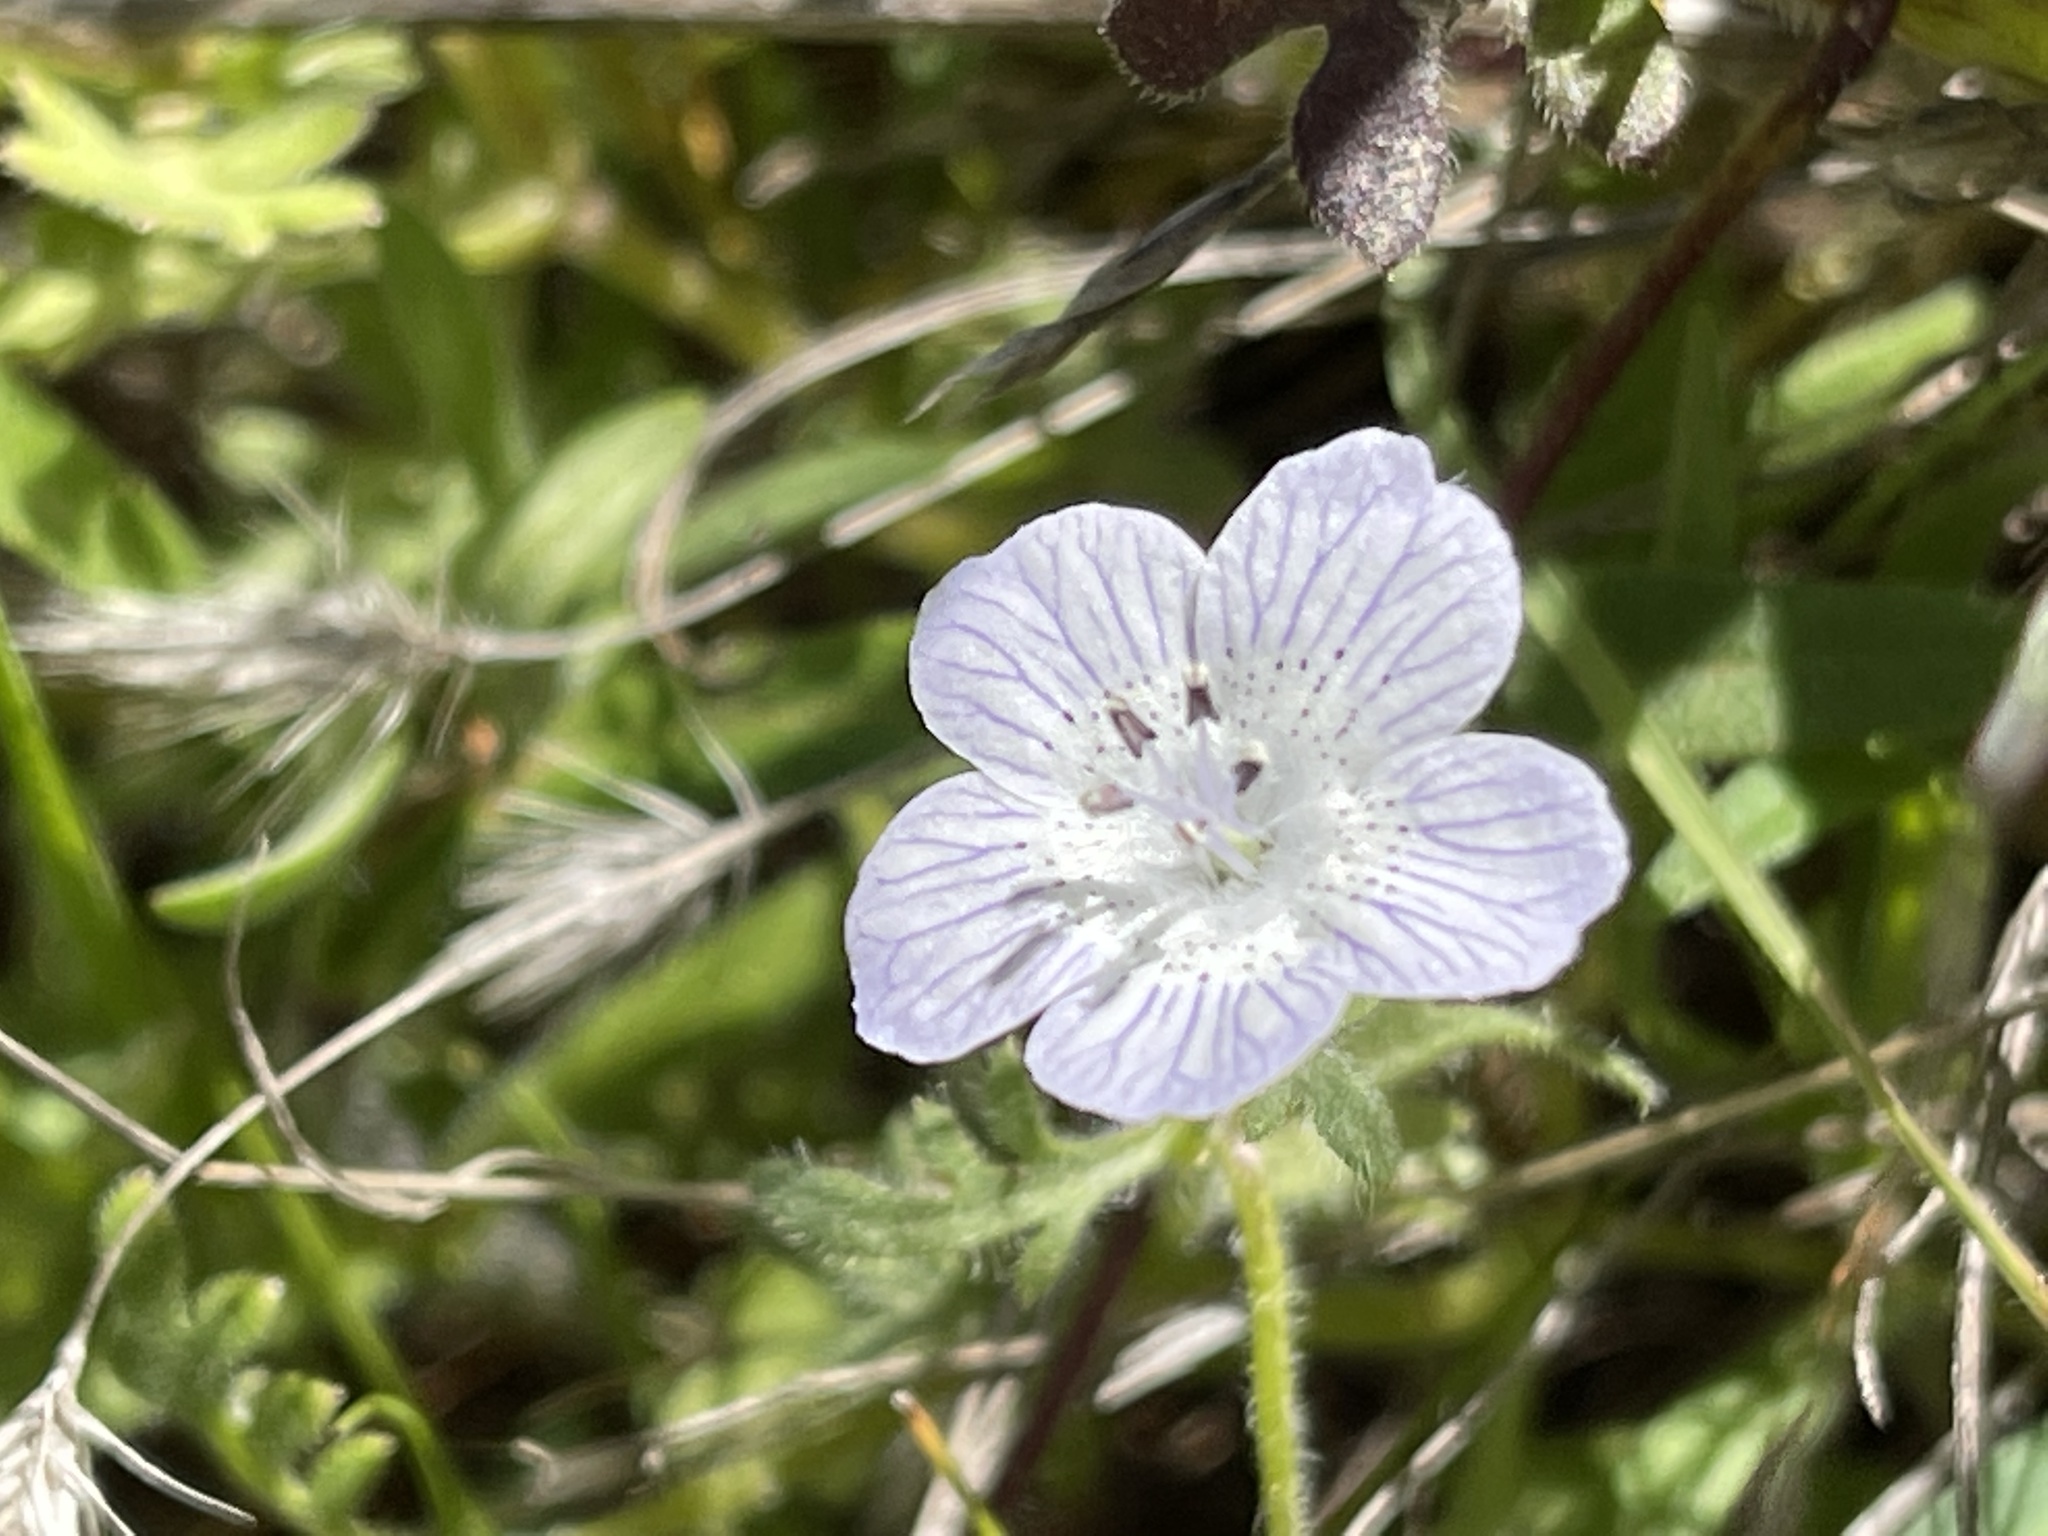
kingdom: Plantae
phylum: Tracheophyta
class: Magnoliopsida
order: Boraginales
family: Hydrophyllaceae
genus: Nemophila
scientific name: Nemophila menziesii
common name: Baby's-blue-eyes
